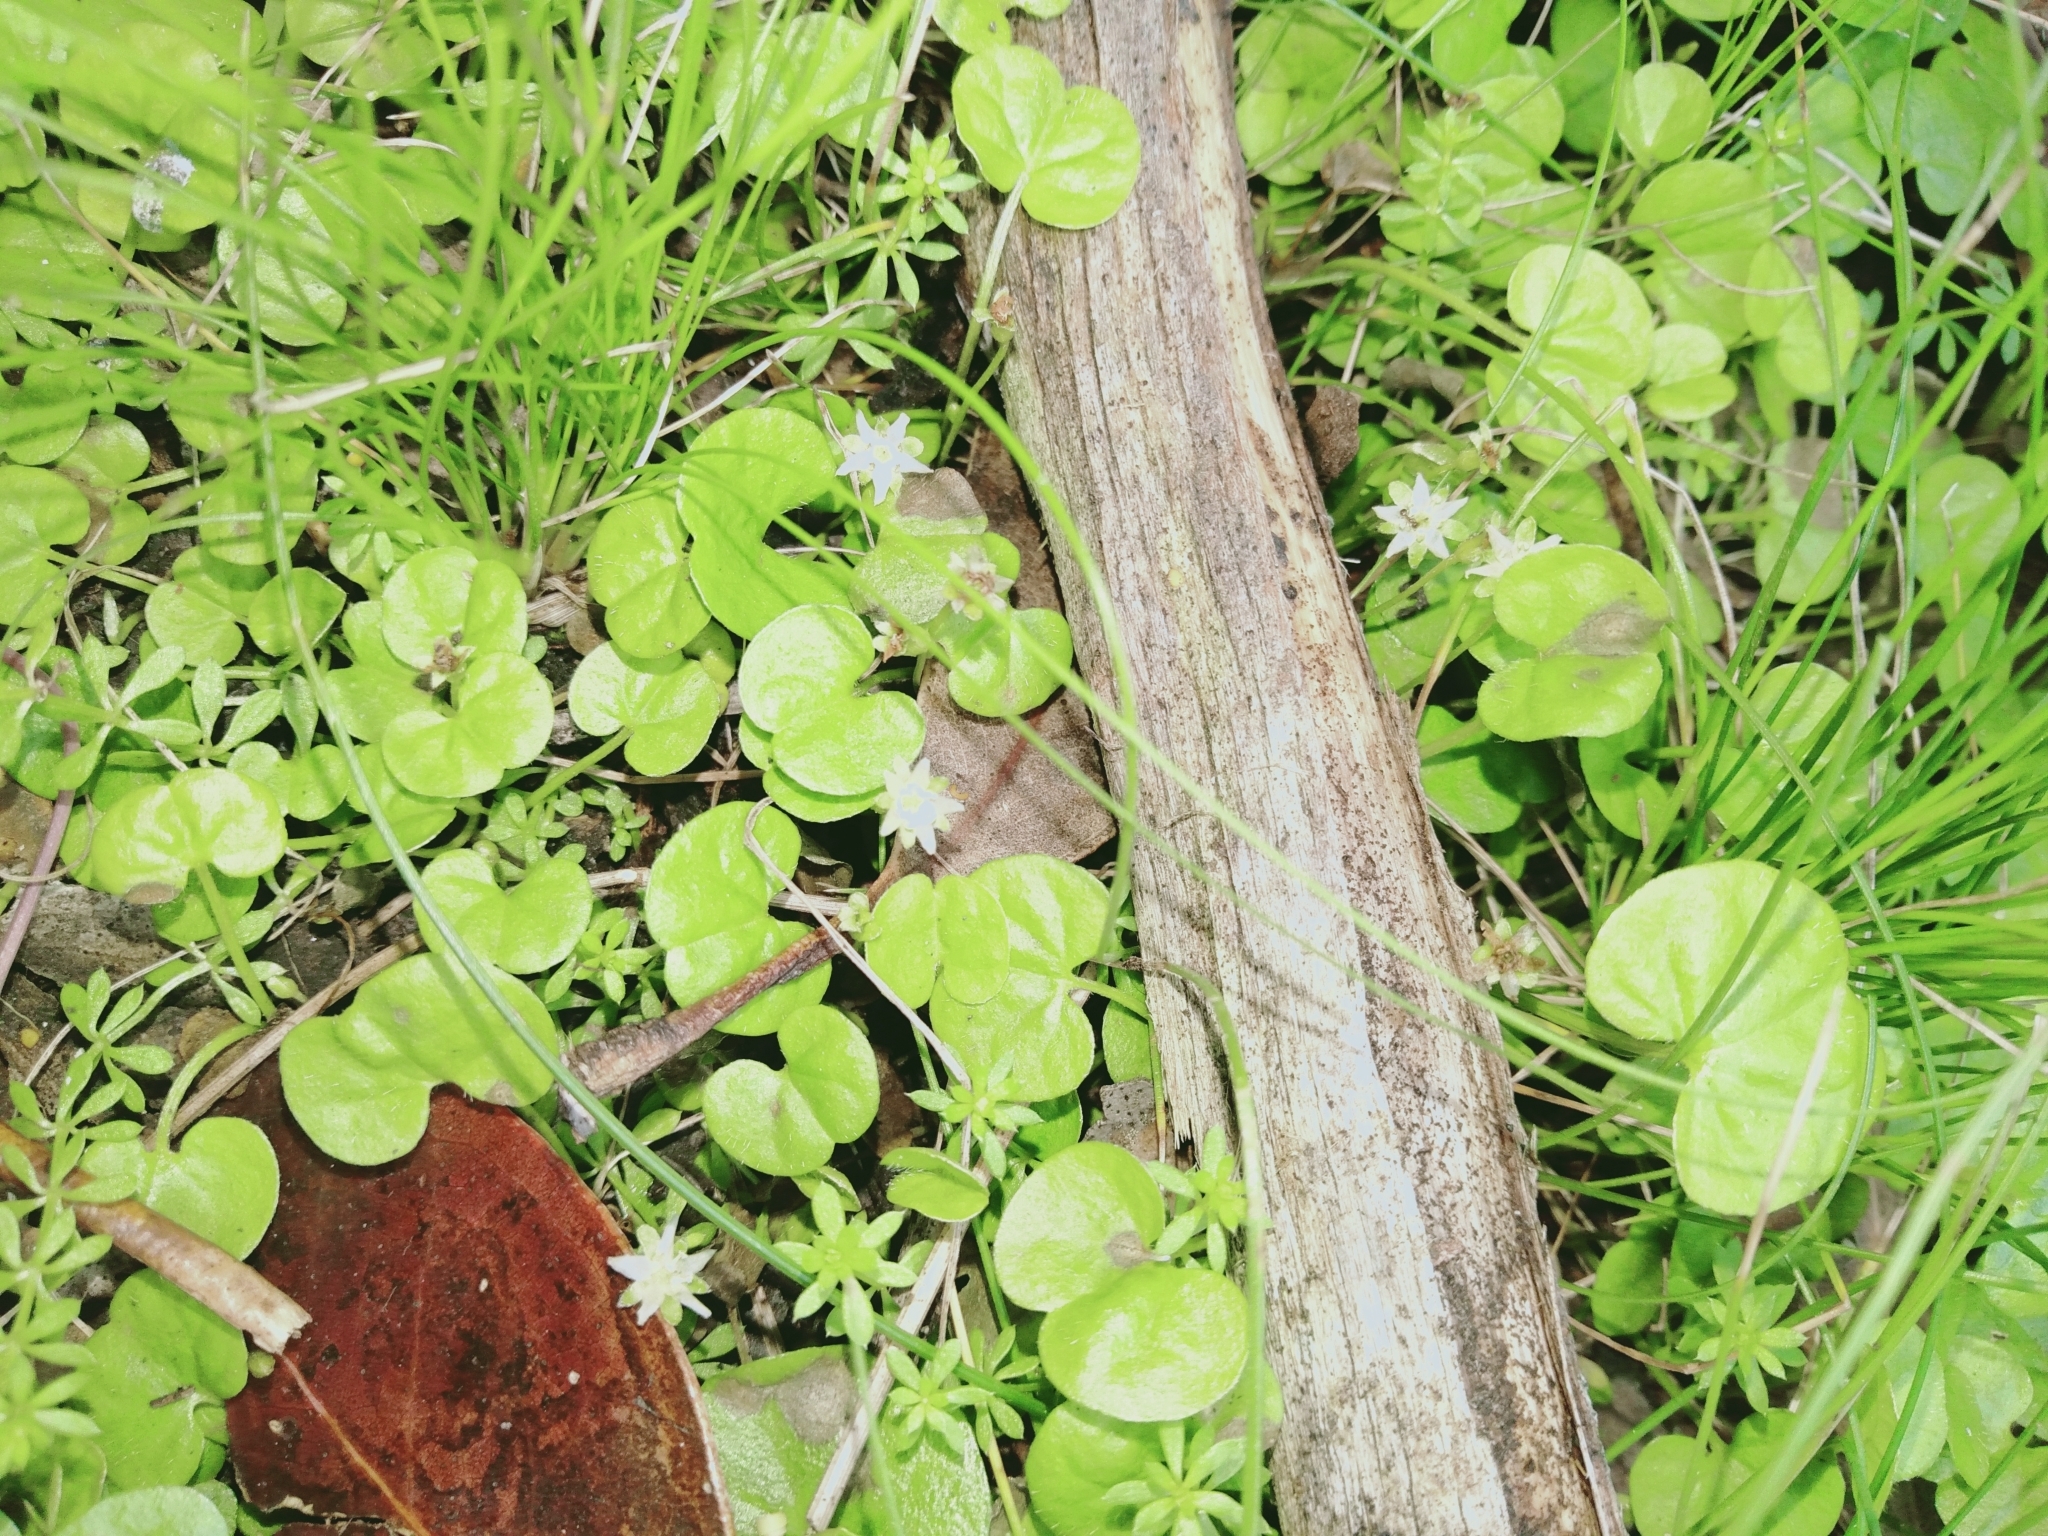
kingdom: Plantae
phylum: Tracheophyta
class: Magnoliopsida
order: Solanales
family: Convolvulaceae
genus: Dichondra
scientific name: Dichondra repens
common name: Kidneyweed
